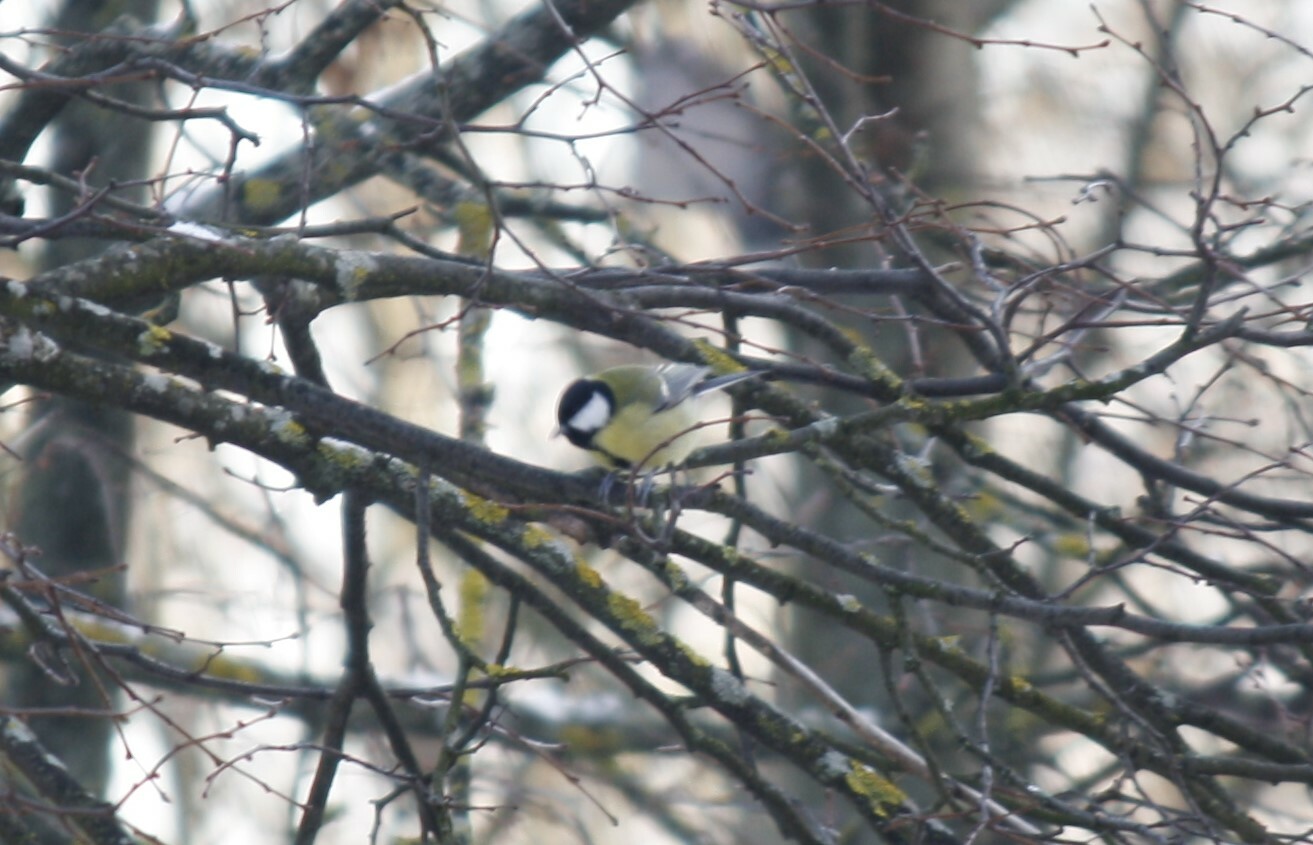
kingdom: Animalia
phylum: Chordata
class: Aves
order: Passeriformes
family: Paridae
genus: Parus
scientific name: Parus major
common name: Great tit
